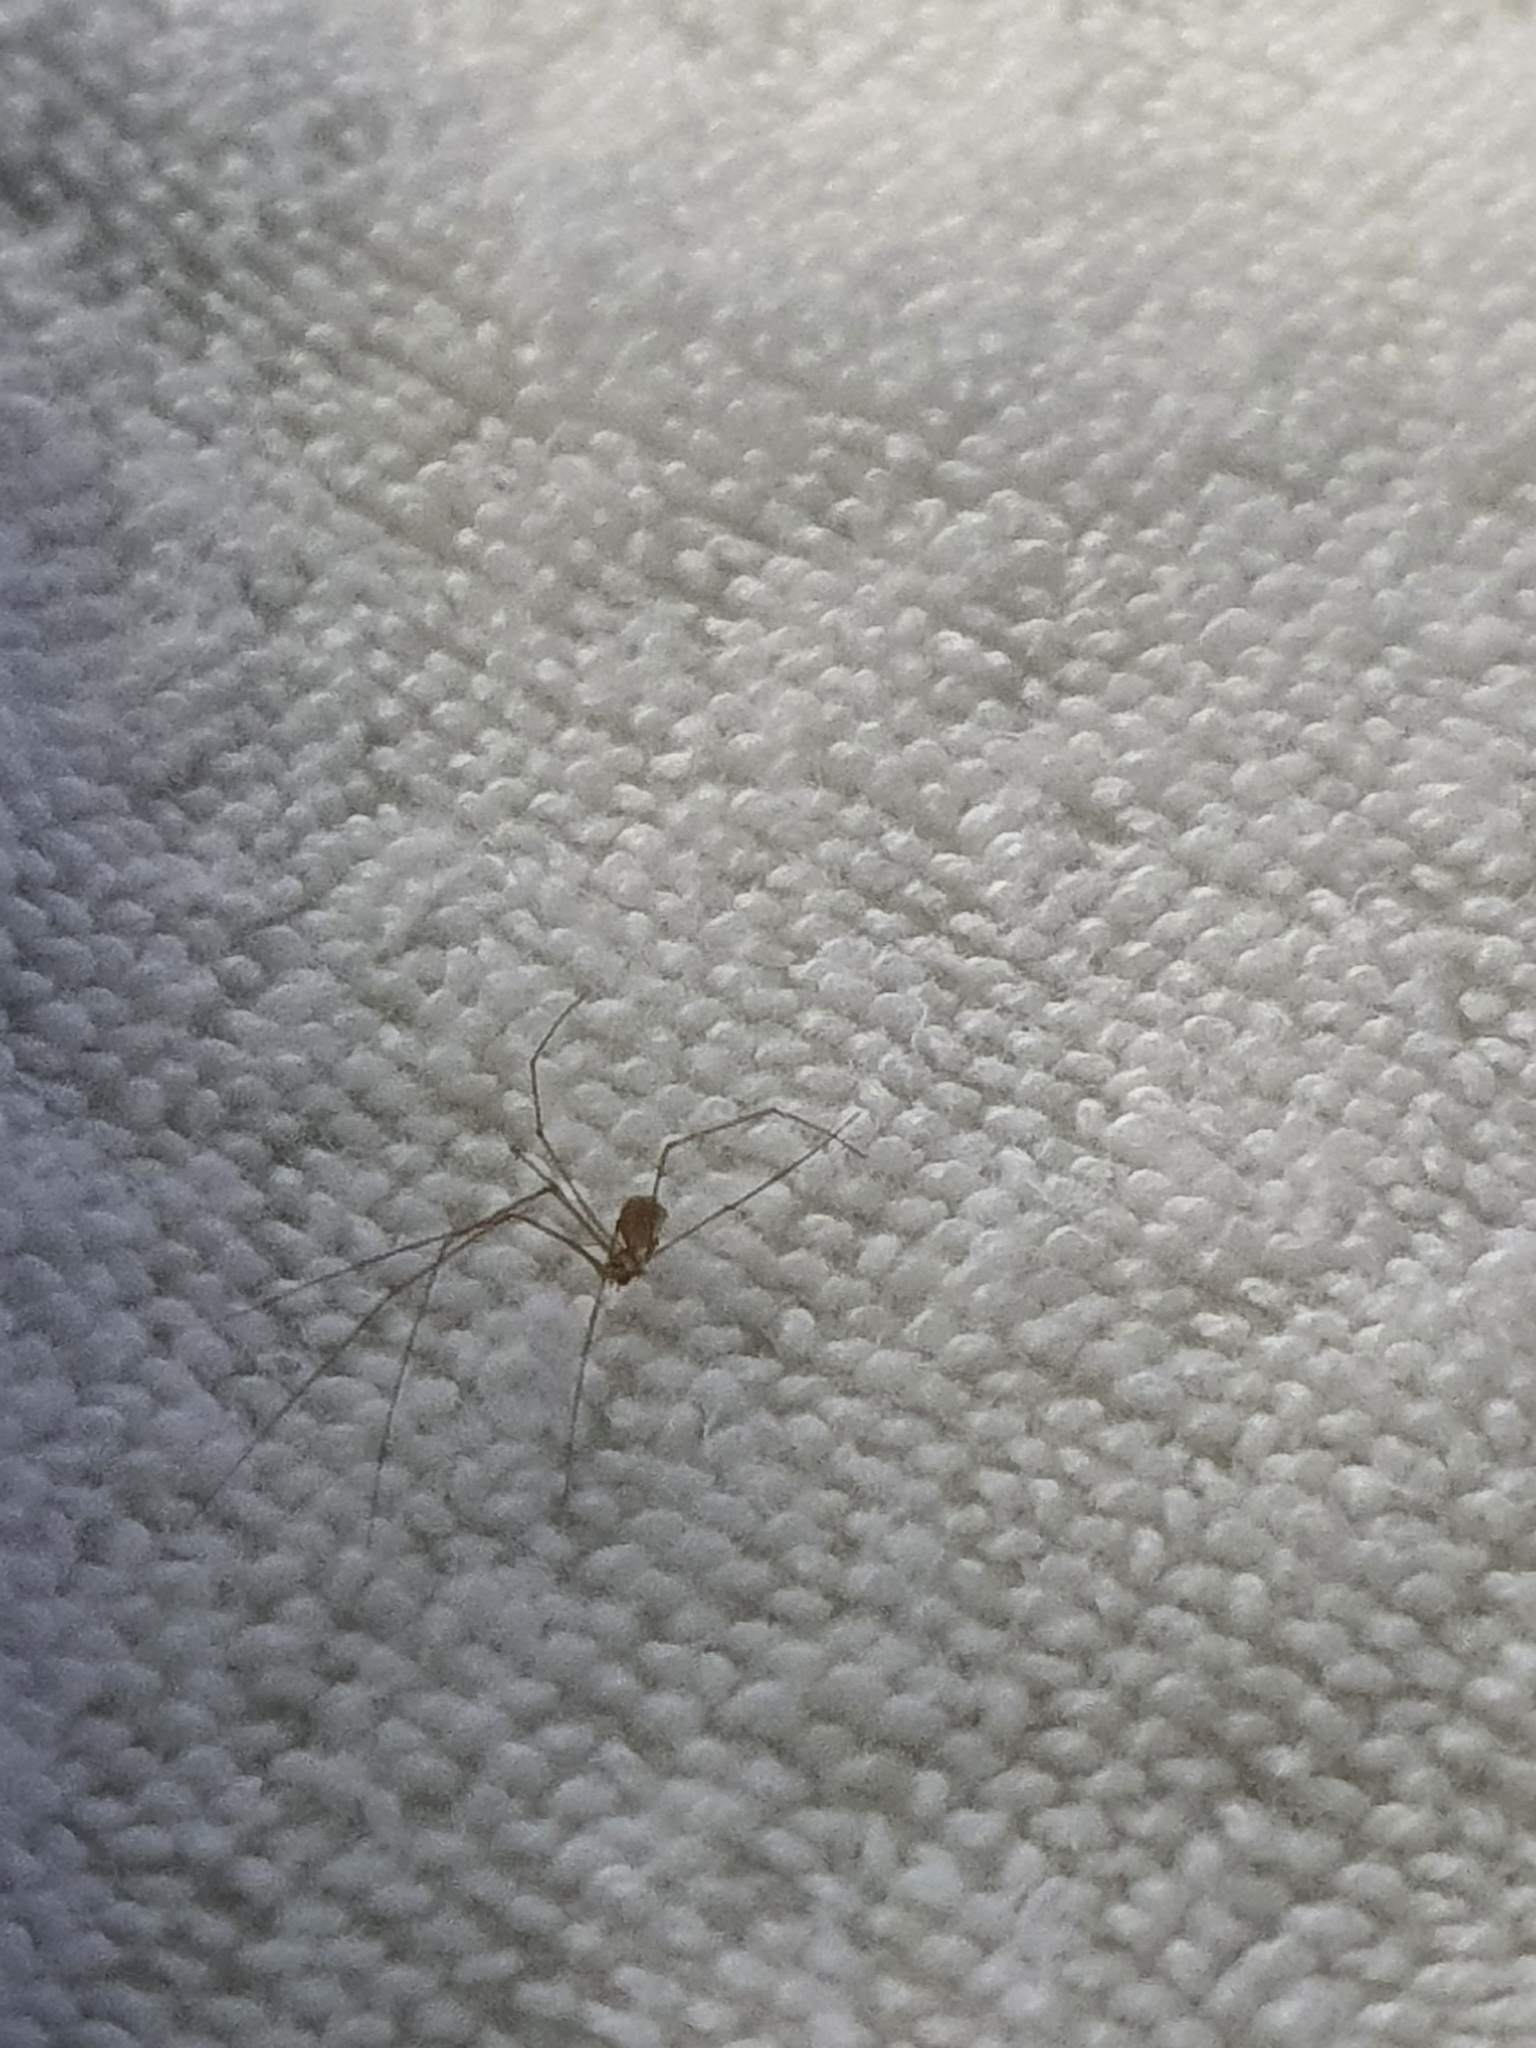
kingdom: Animalia
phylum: Arthropoda
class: Arachnida
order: Araneae
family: Pholcidae
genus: Micropholcus
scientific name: Micropholcus fauroti
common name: Cellar spider
